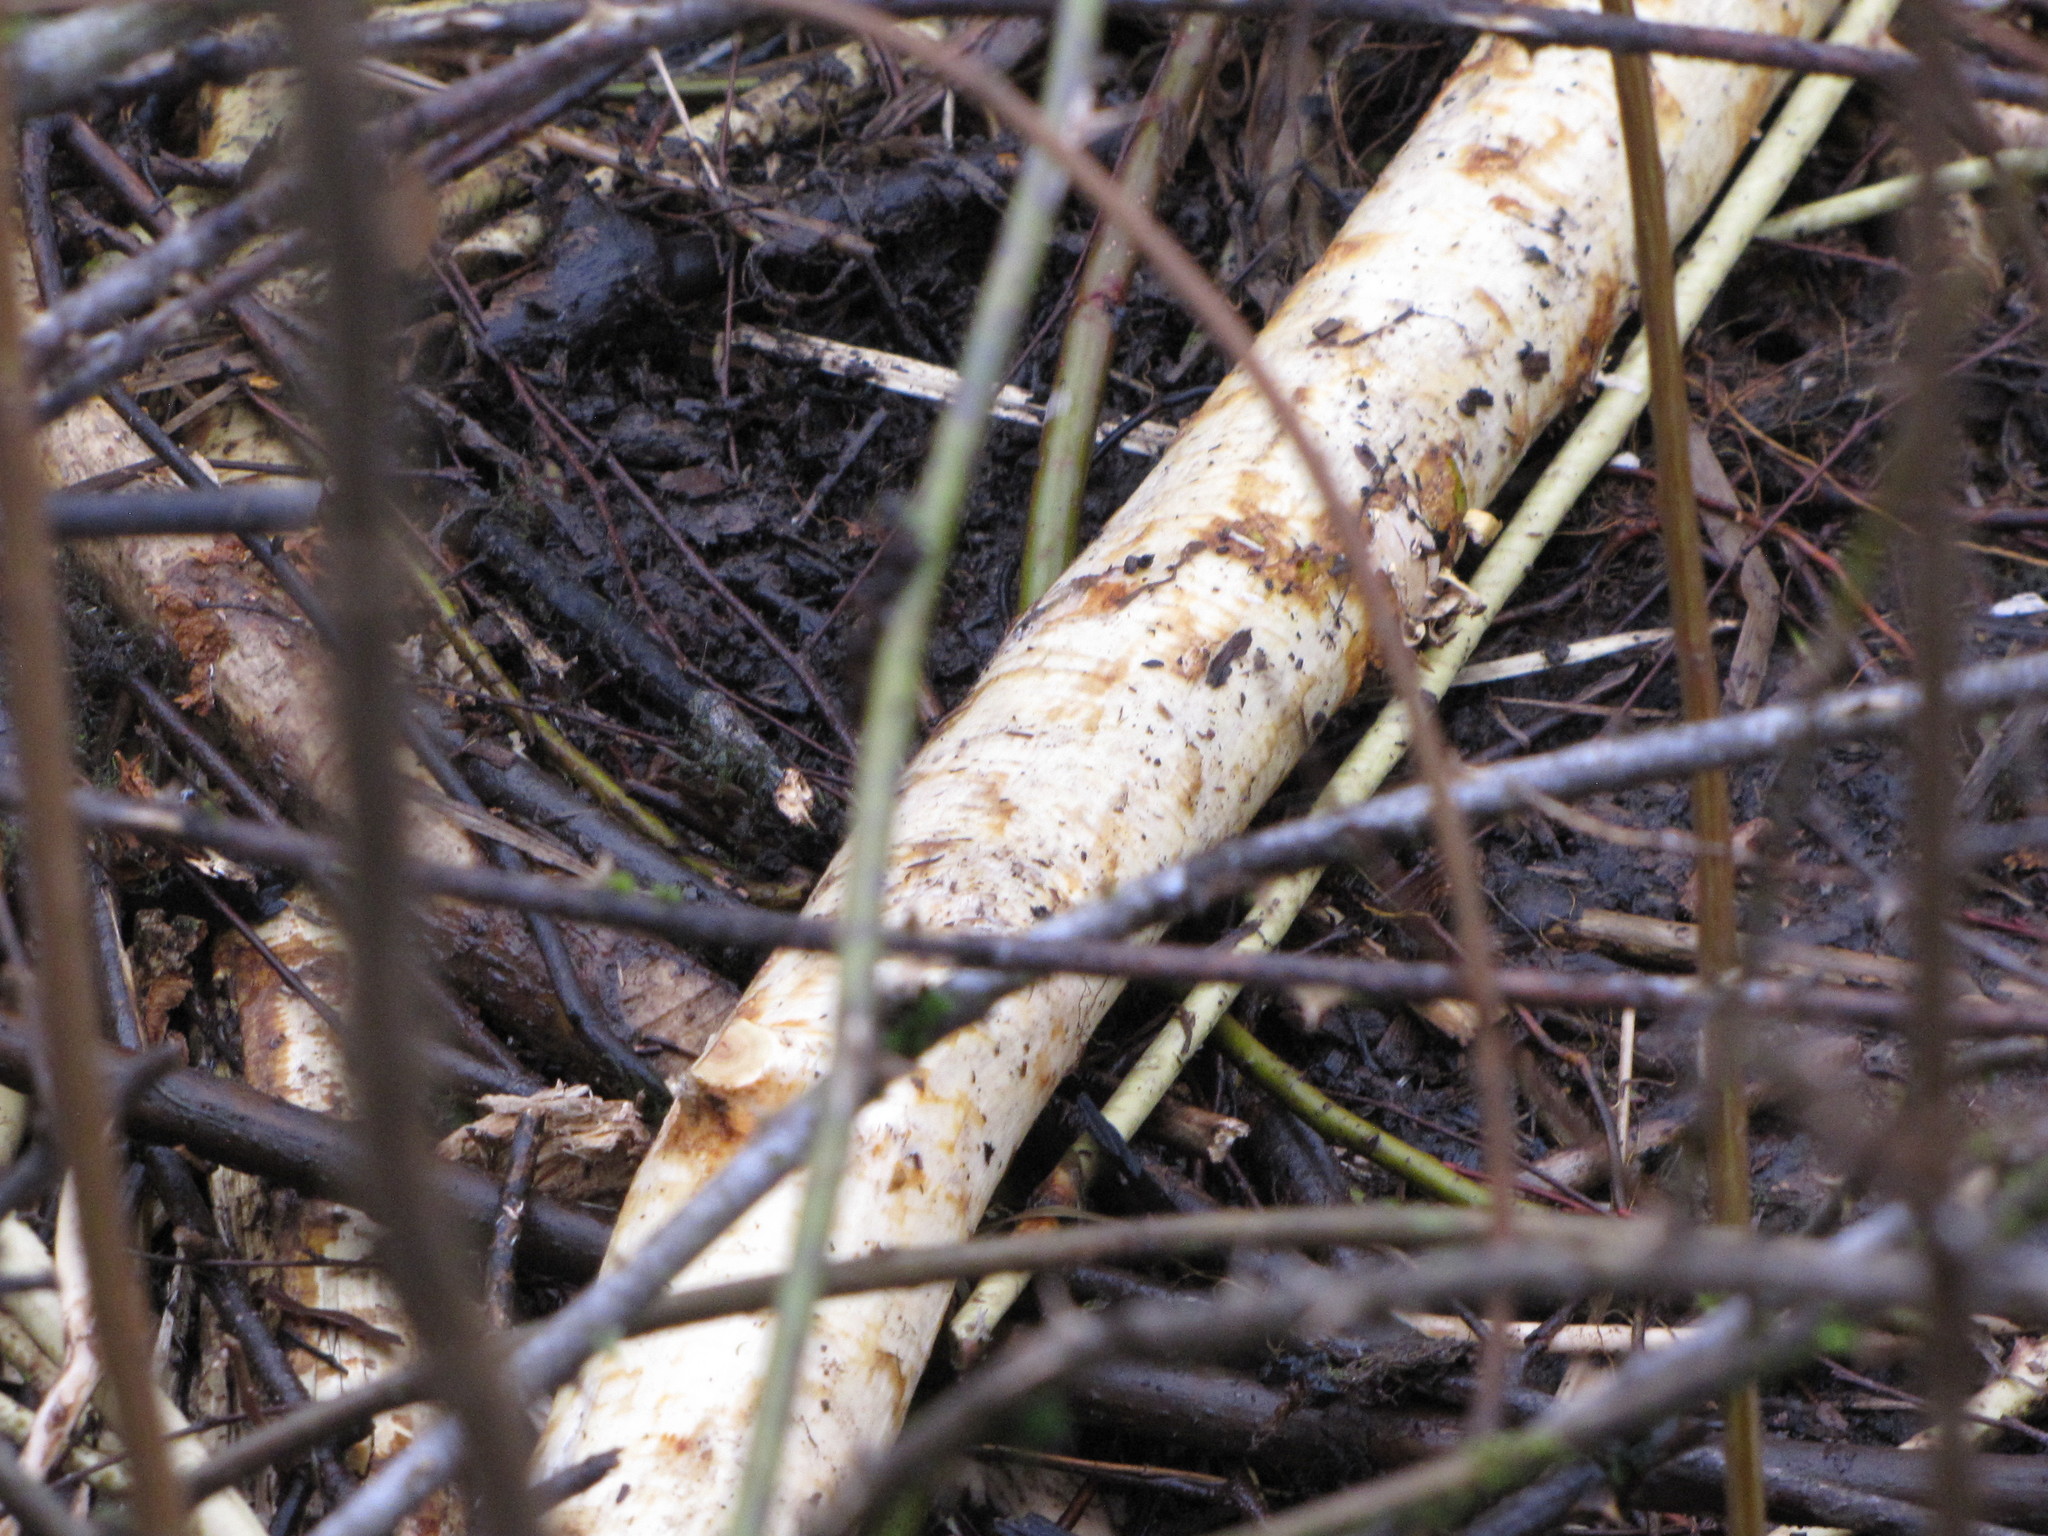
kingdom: Animalia
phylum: Chordata
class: Mammalia
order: Rodentia
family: Castoridae
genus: Castor
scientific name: Castor canadensis
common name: American beaver
